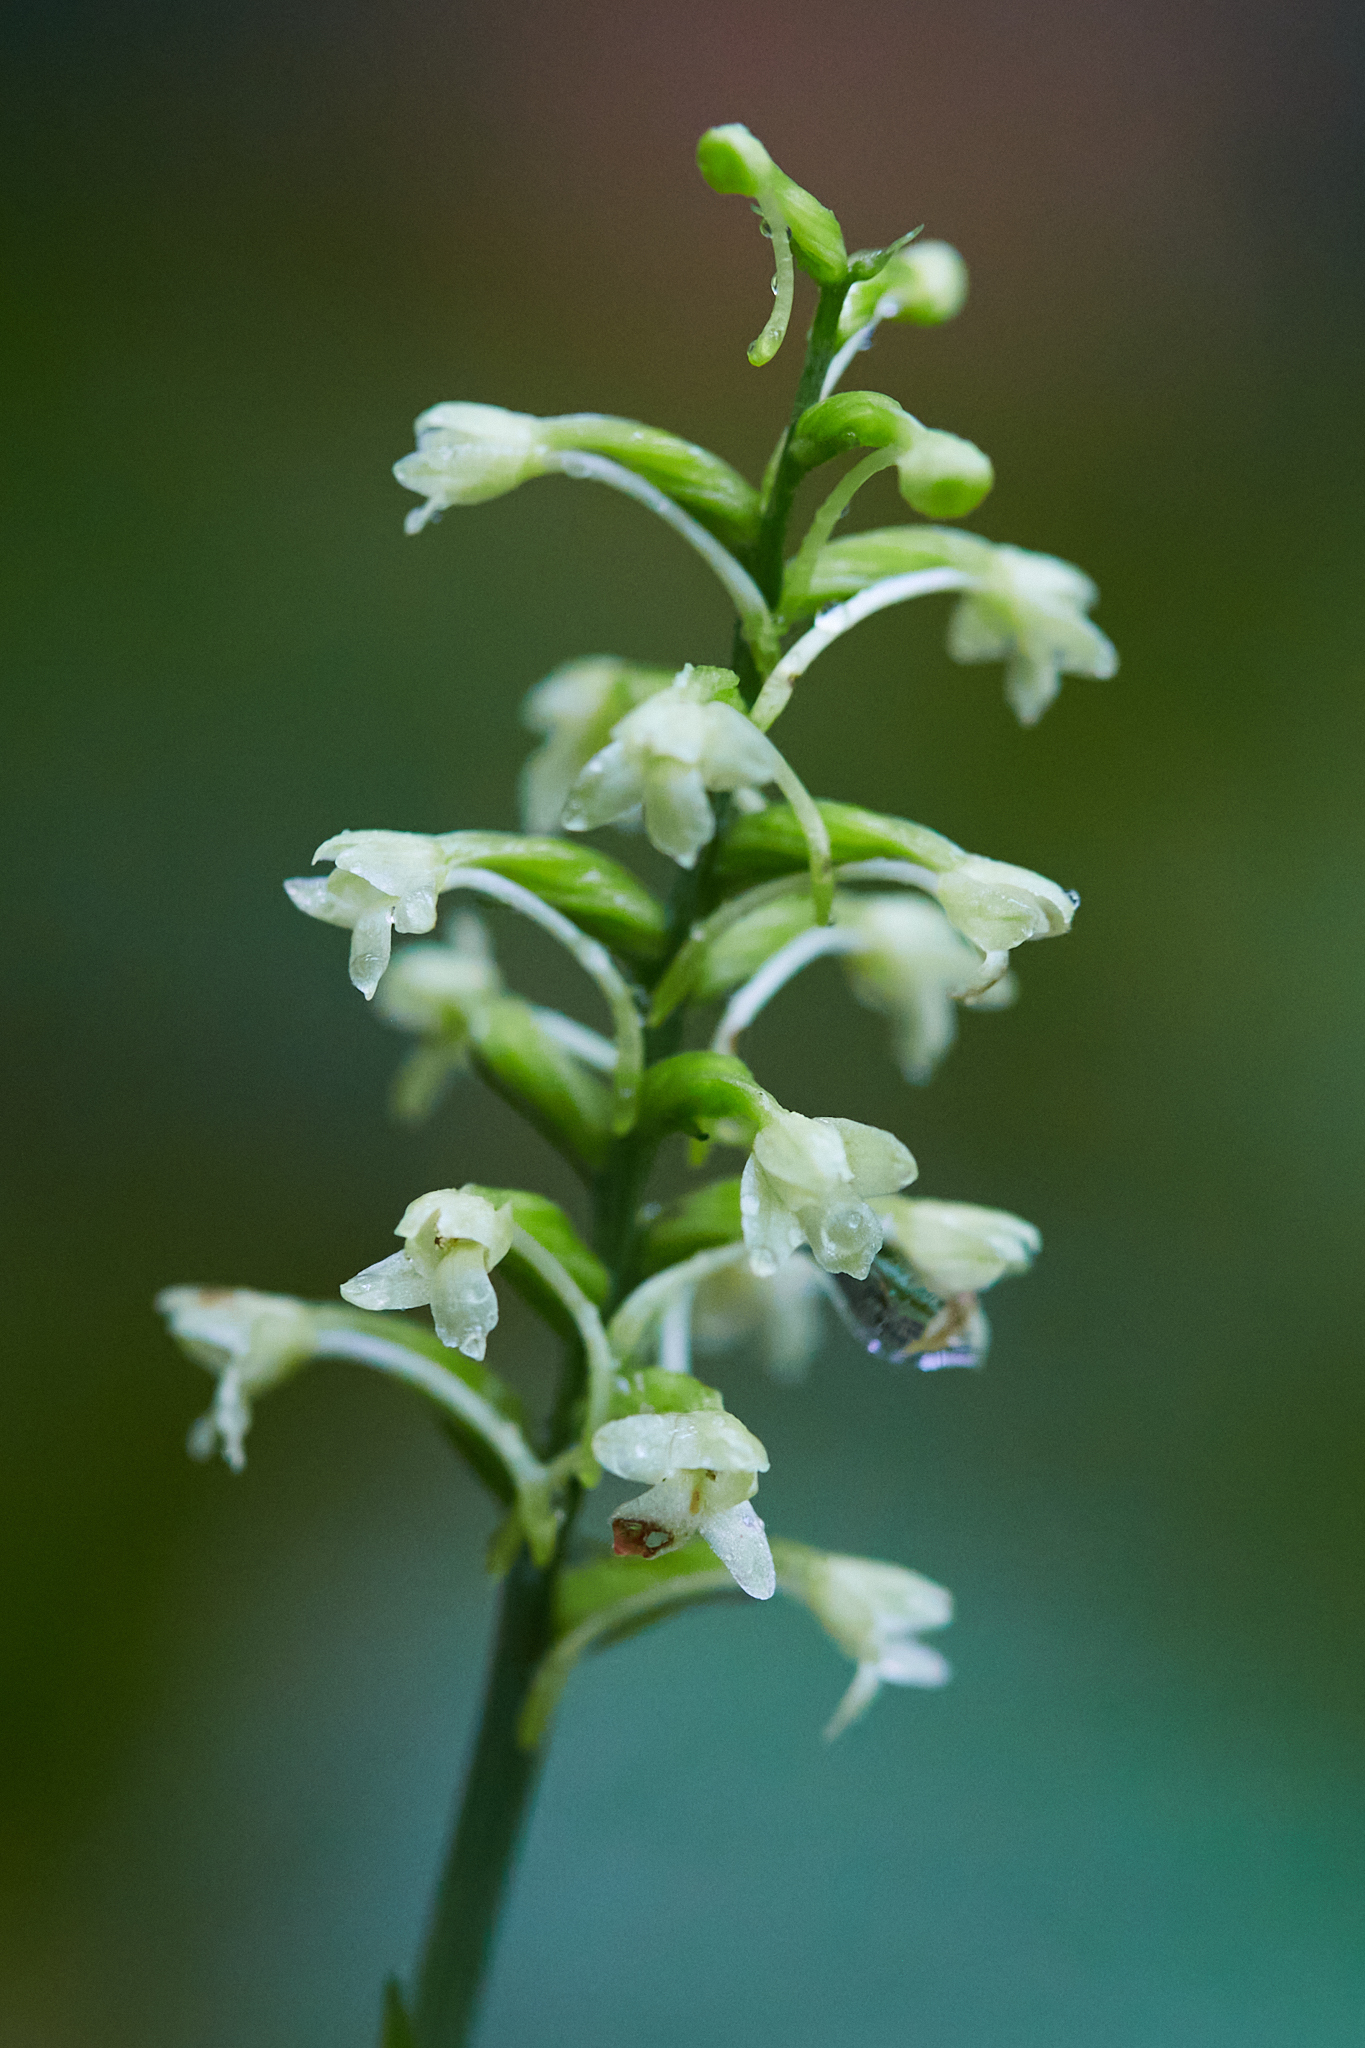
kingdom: Plantae
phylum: Tracheophyta
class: Liliopsida
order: Asparagales
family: Orchidaceae
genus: Platanthera
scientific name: Platanthera clavellata
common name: Club-spur orchid
